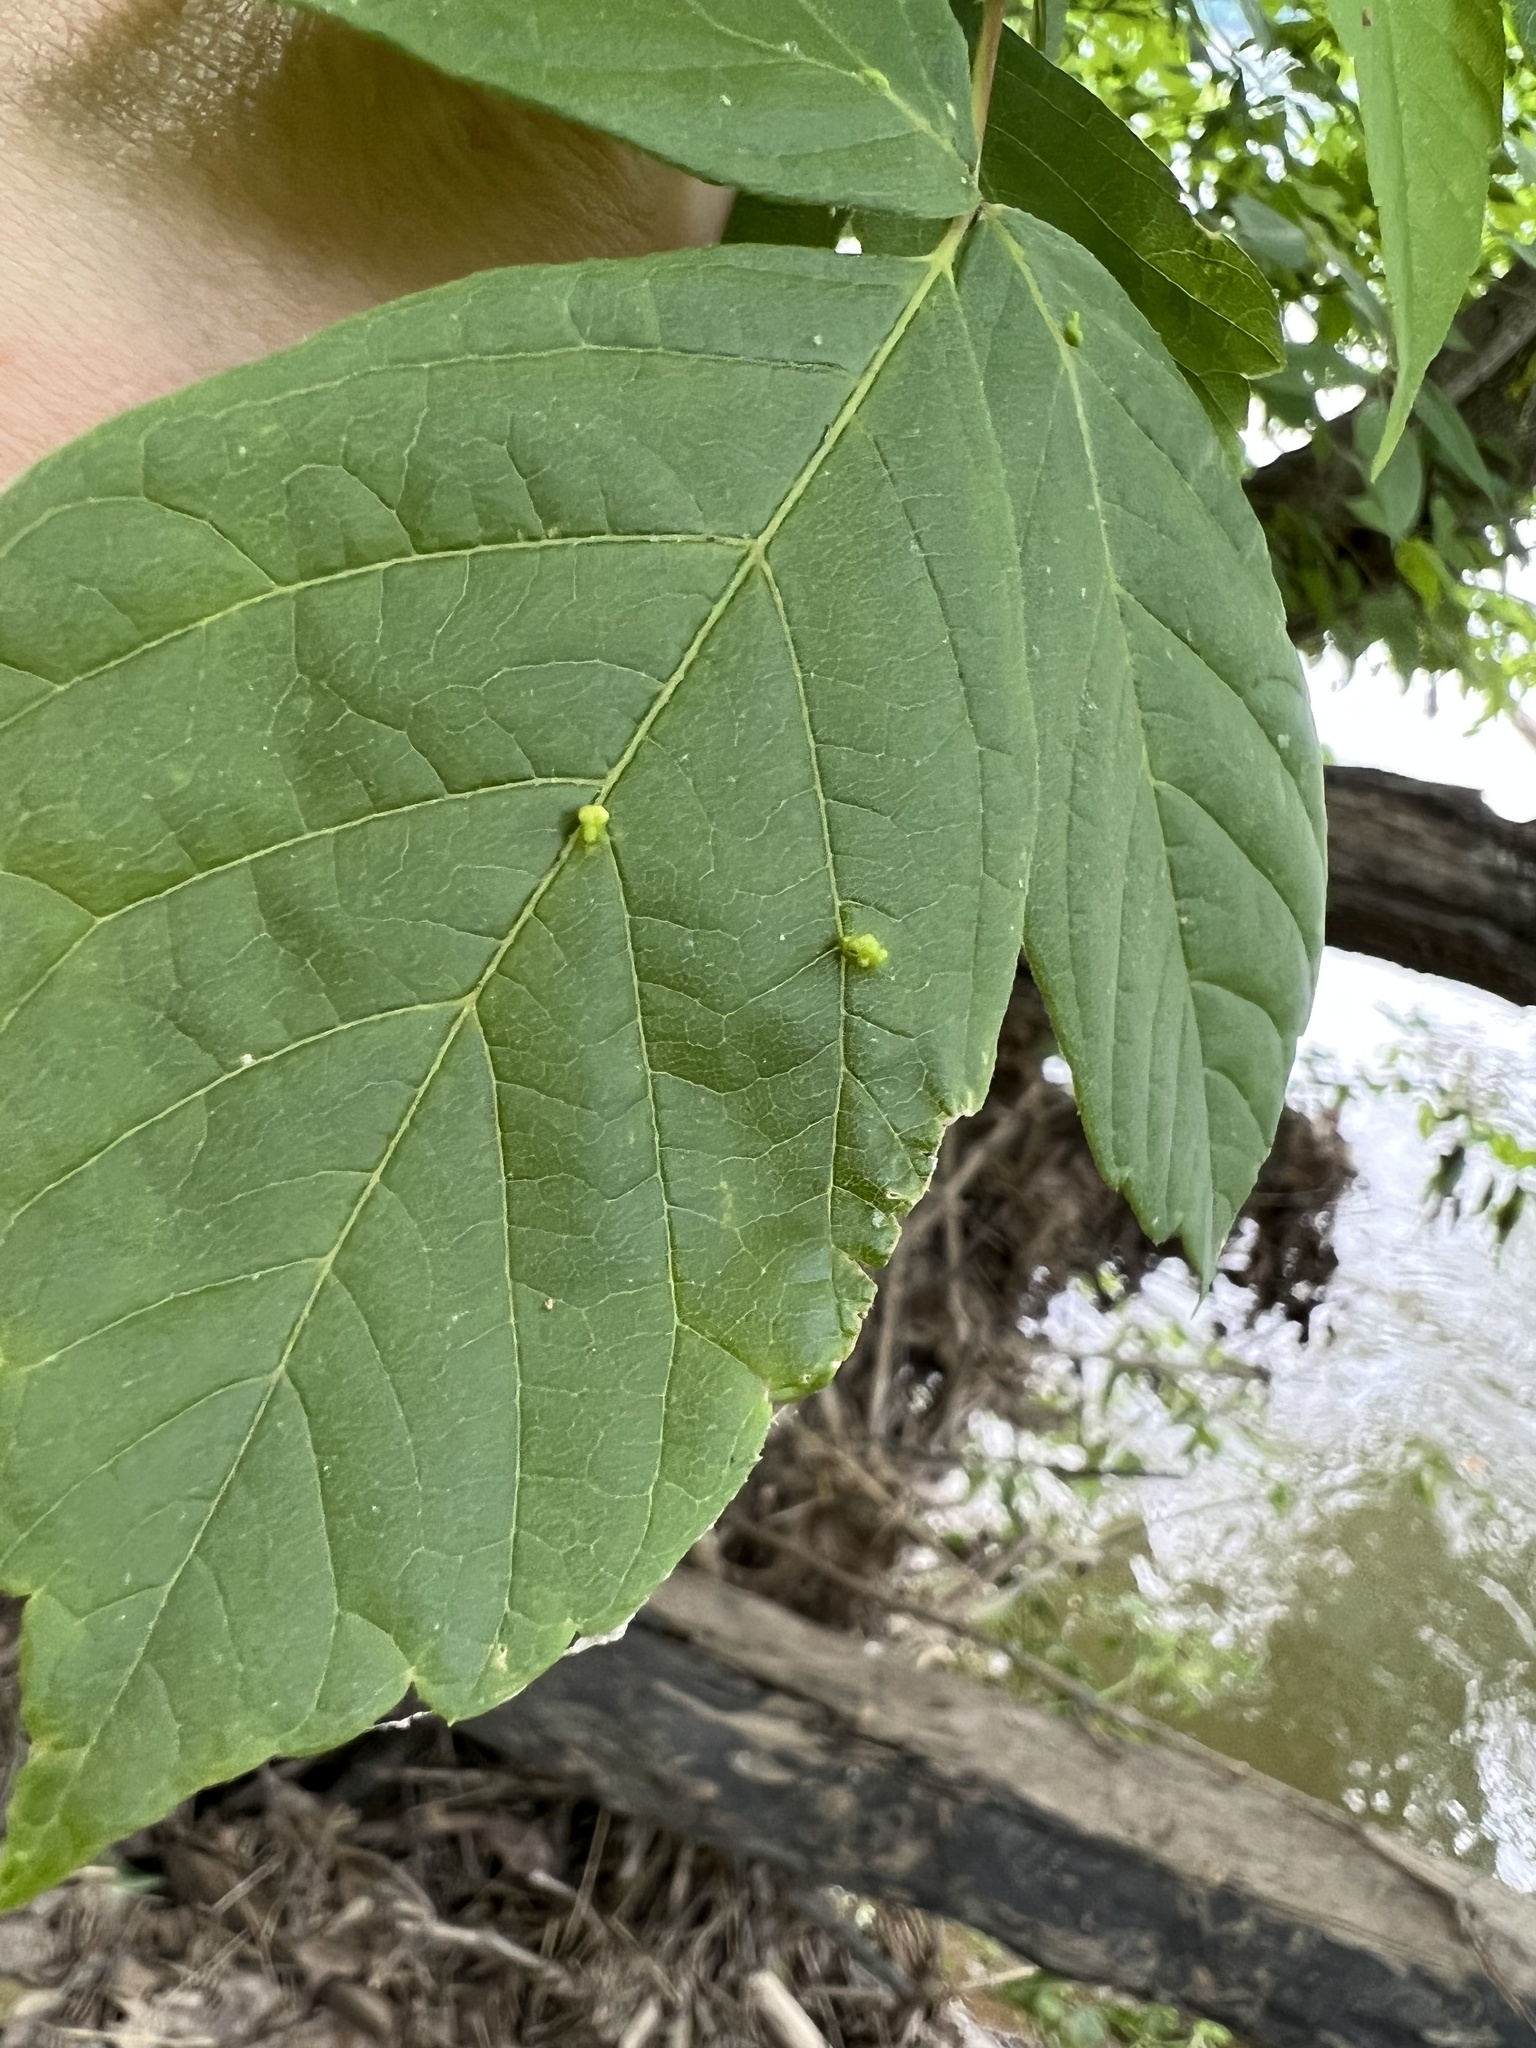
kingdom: Animalia
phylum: Arthropoda
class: Arachnida
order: Trombidiformes
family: Eriophyidae
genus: Aceria
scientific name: Aceria
